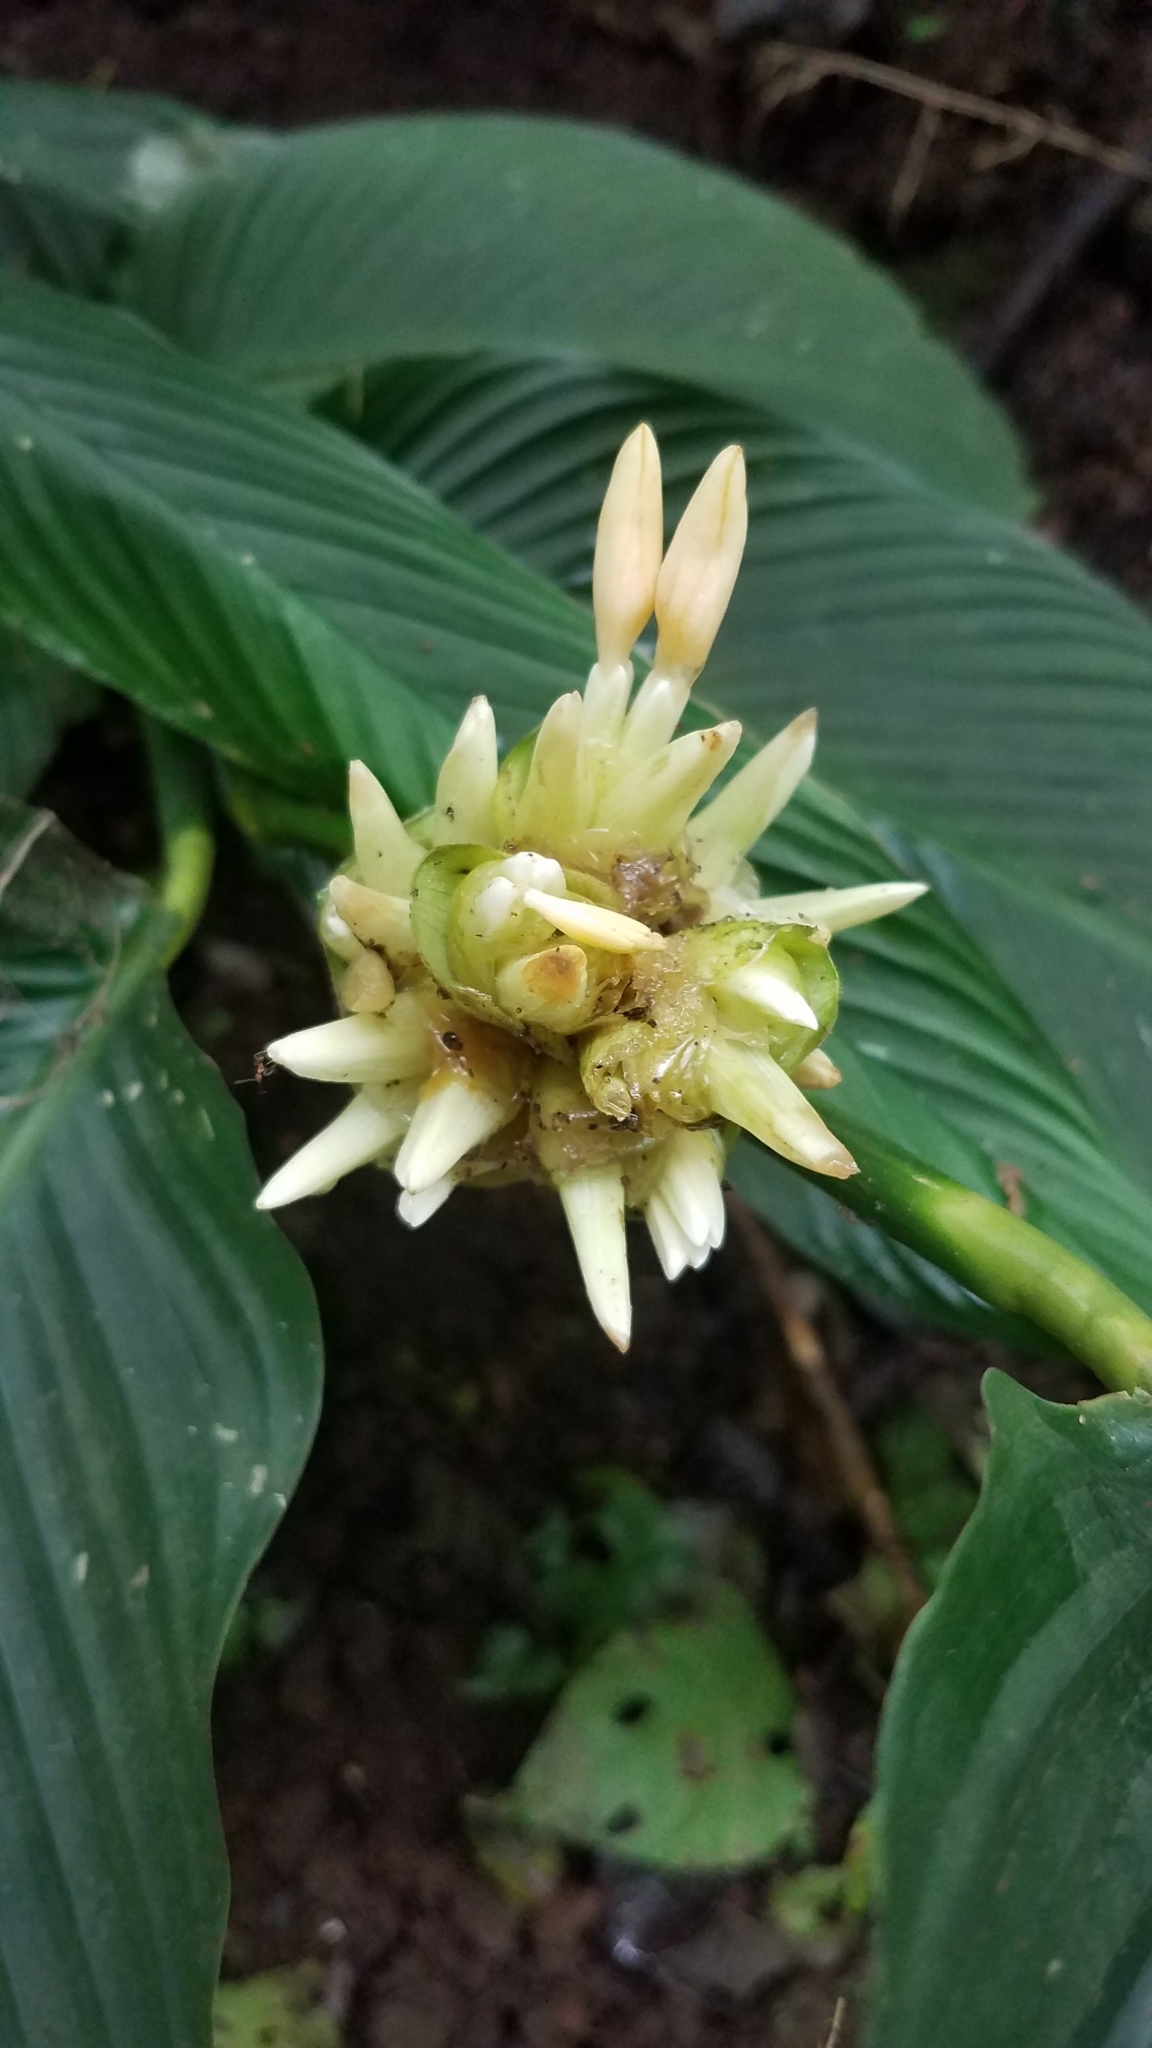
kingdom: Plantae
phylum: Tracheophyta
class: Liliopsida
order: Zingiberales
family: Marantaceae
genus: Goeppertia
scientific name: Goeppertia macrosepala
